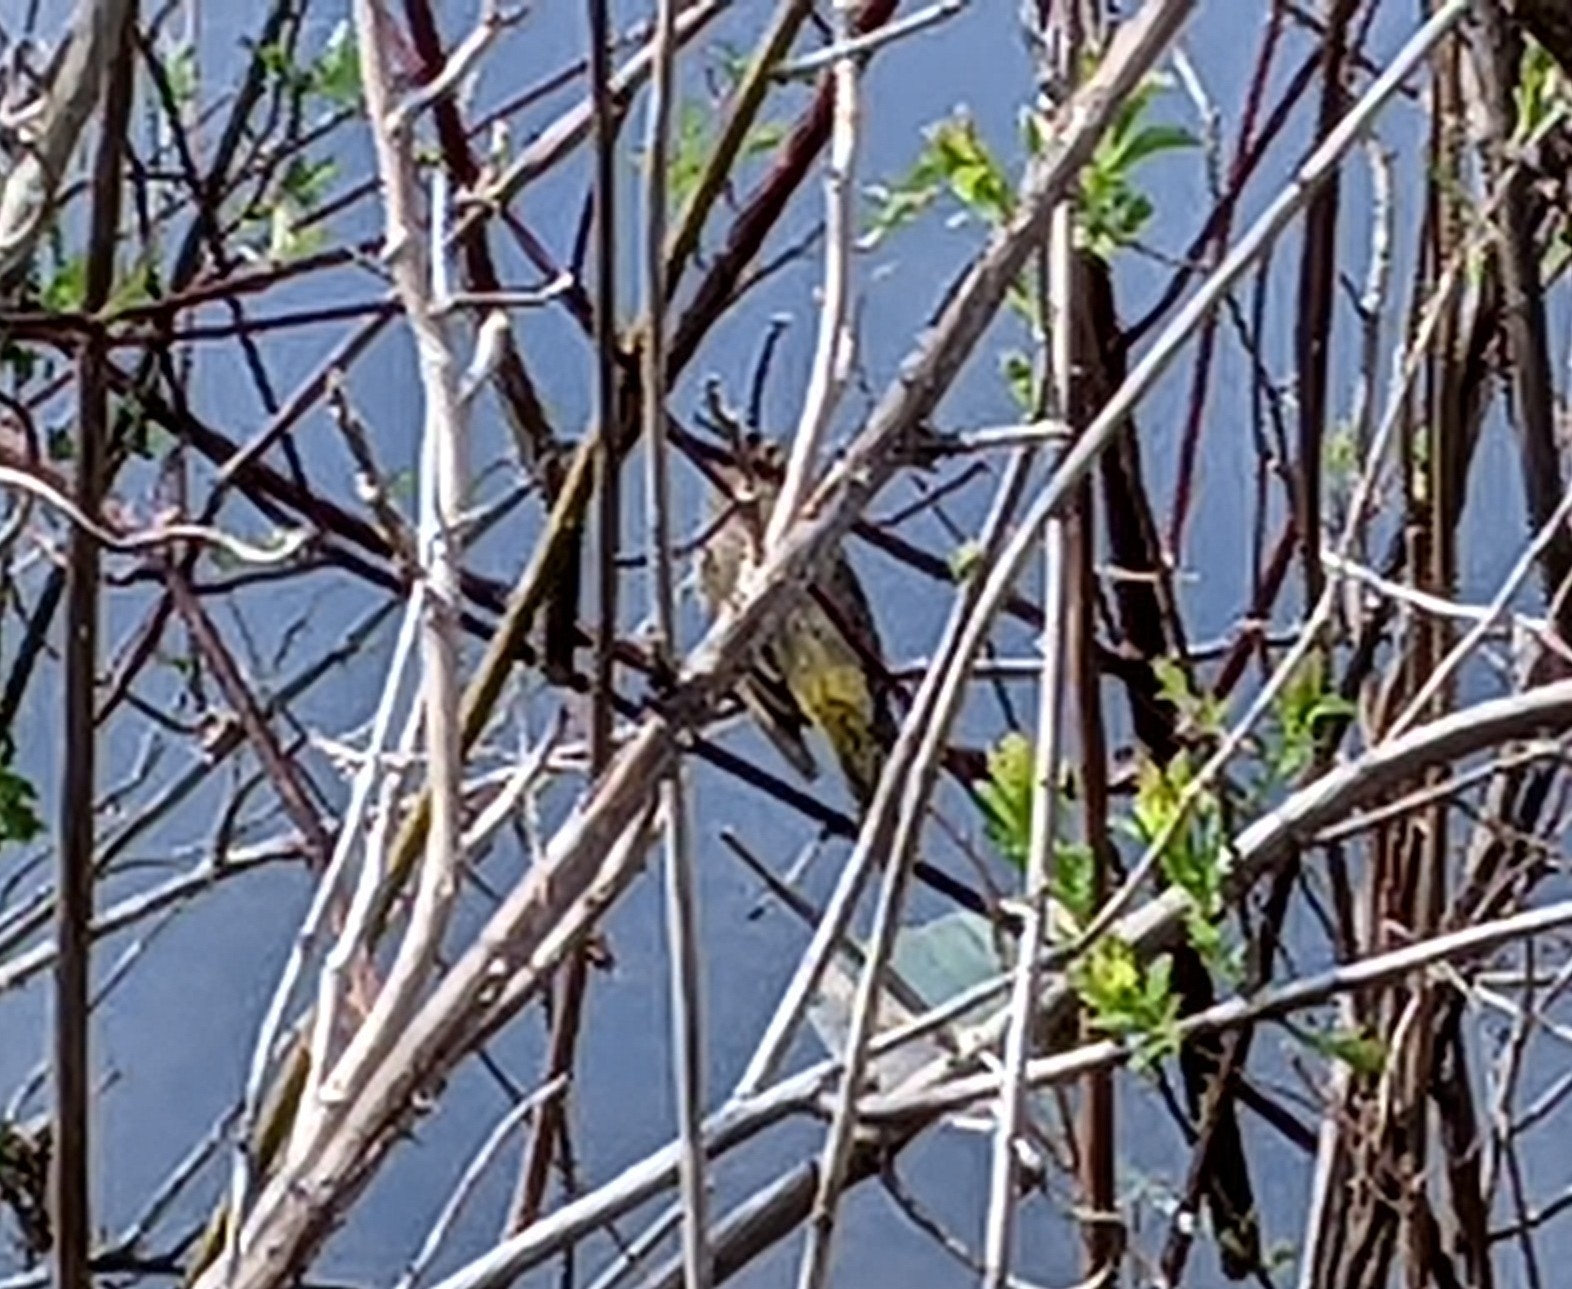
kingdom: Animalia
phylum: Chordata
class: Aves
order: Passeriformes
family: Parulidae
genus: Setophaga
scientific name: Setophaga palmarum
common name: Palm warbler
